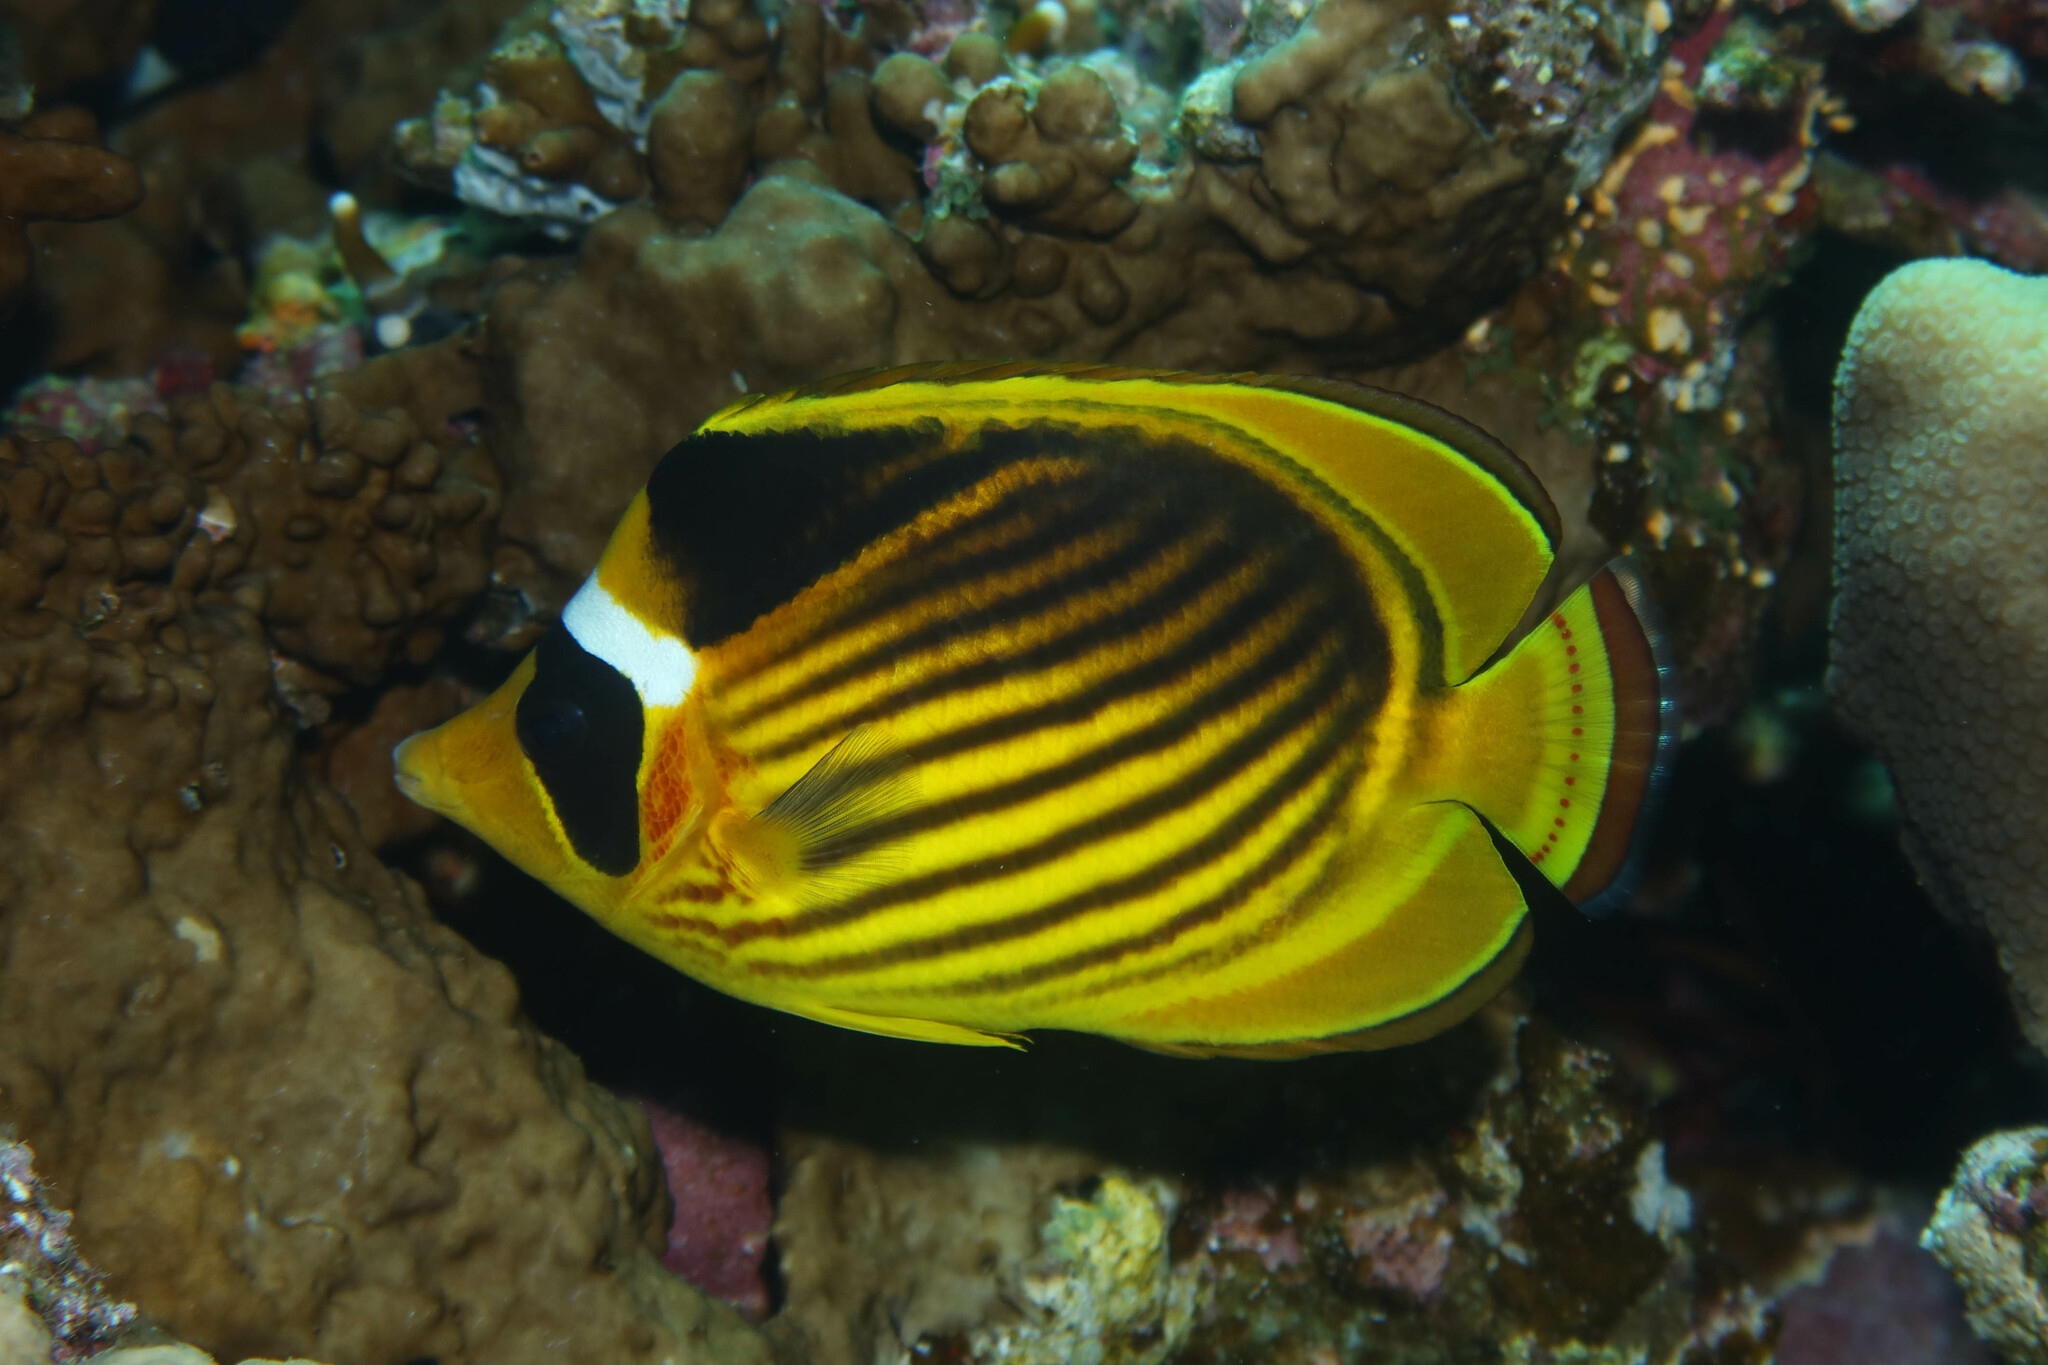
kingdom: Animalia
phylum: Chordata
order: Perciformes
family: Chaetodontidae
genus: Chaetodon
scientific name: Chaetodon fasciatus
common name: Diagonal butterflyfish
